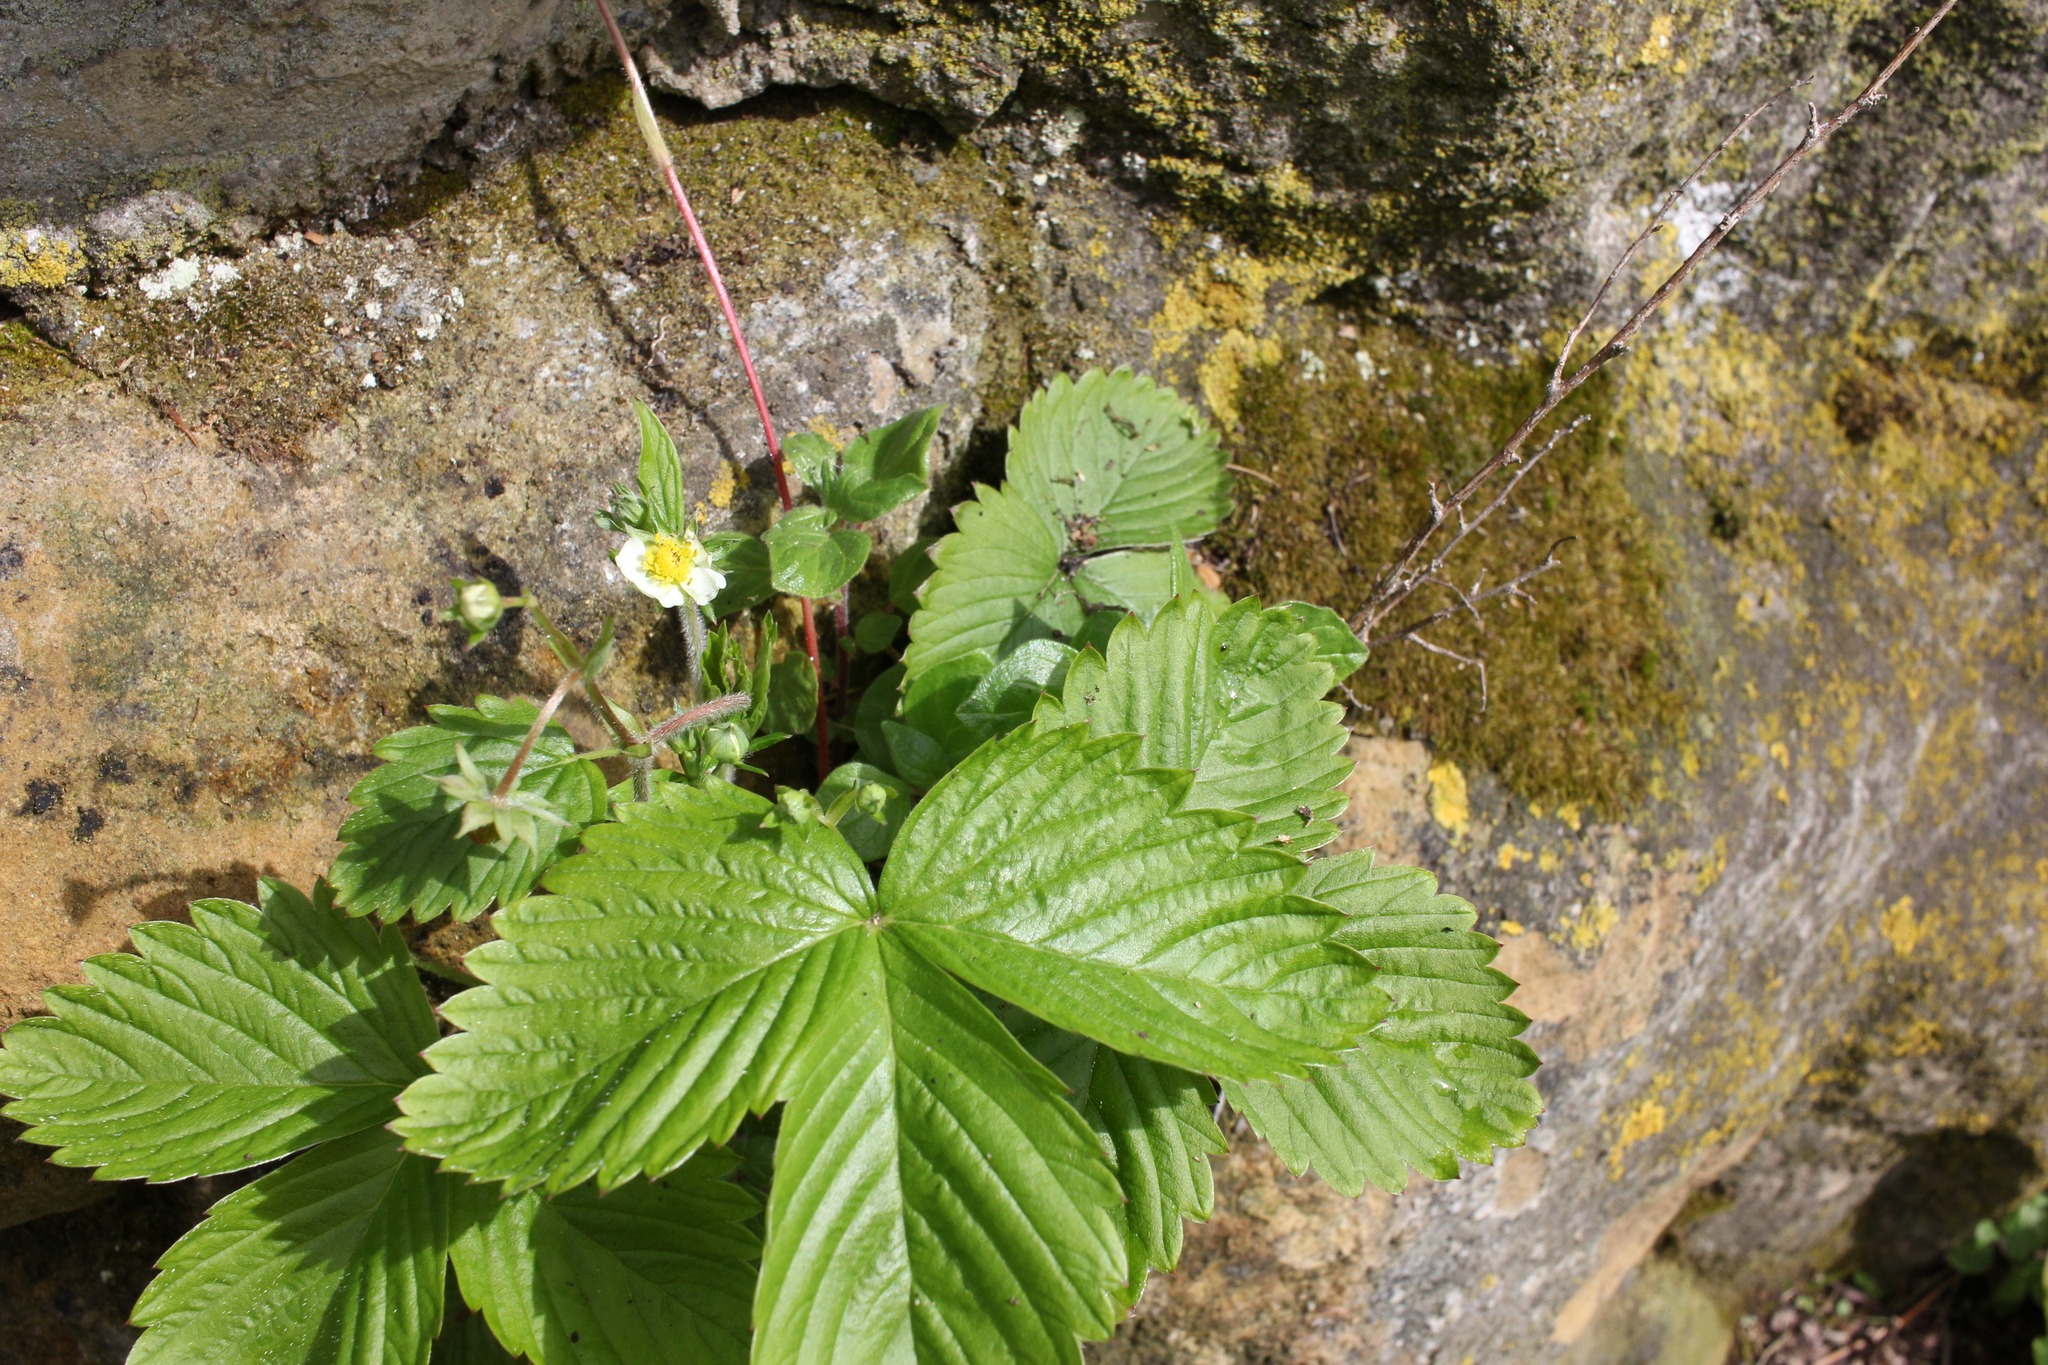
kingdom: Plantae
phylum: Tracheophyta
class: Magnoliopsida
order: Rosales
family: Rosaceae
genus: Fragaria
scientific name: Fragaria vesca
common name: Wild strawberry
